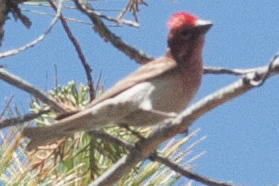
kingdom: Animalia
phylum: Chordata
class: Aves
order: Passeriformes
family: Fringillidae
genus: Haemorhous
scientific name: Haemorhous cassinii
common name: Cassin's finch
